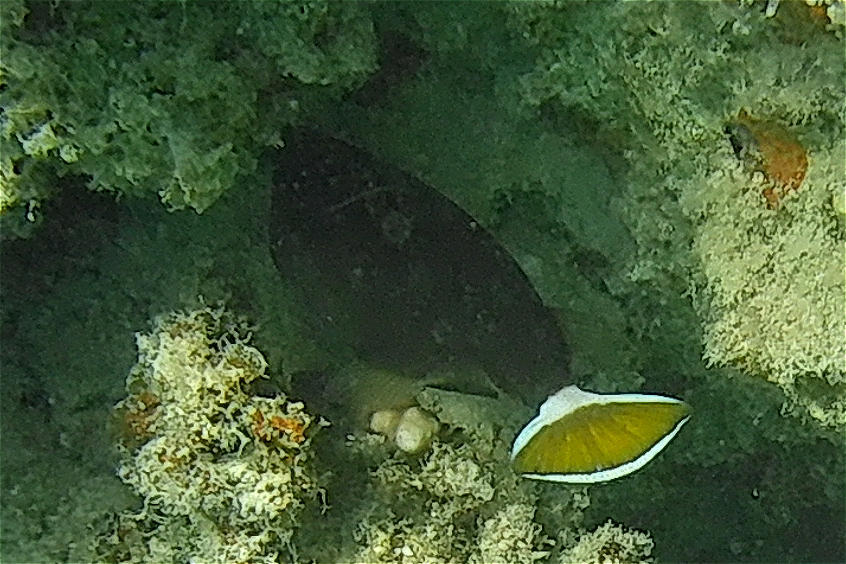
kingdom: Animalia
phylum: Chordata
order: Tetraodontiformes
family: Balistidae
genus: Sufflamen
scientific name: Sufflamen albicaudatum
